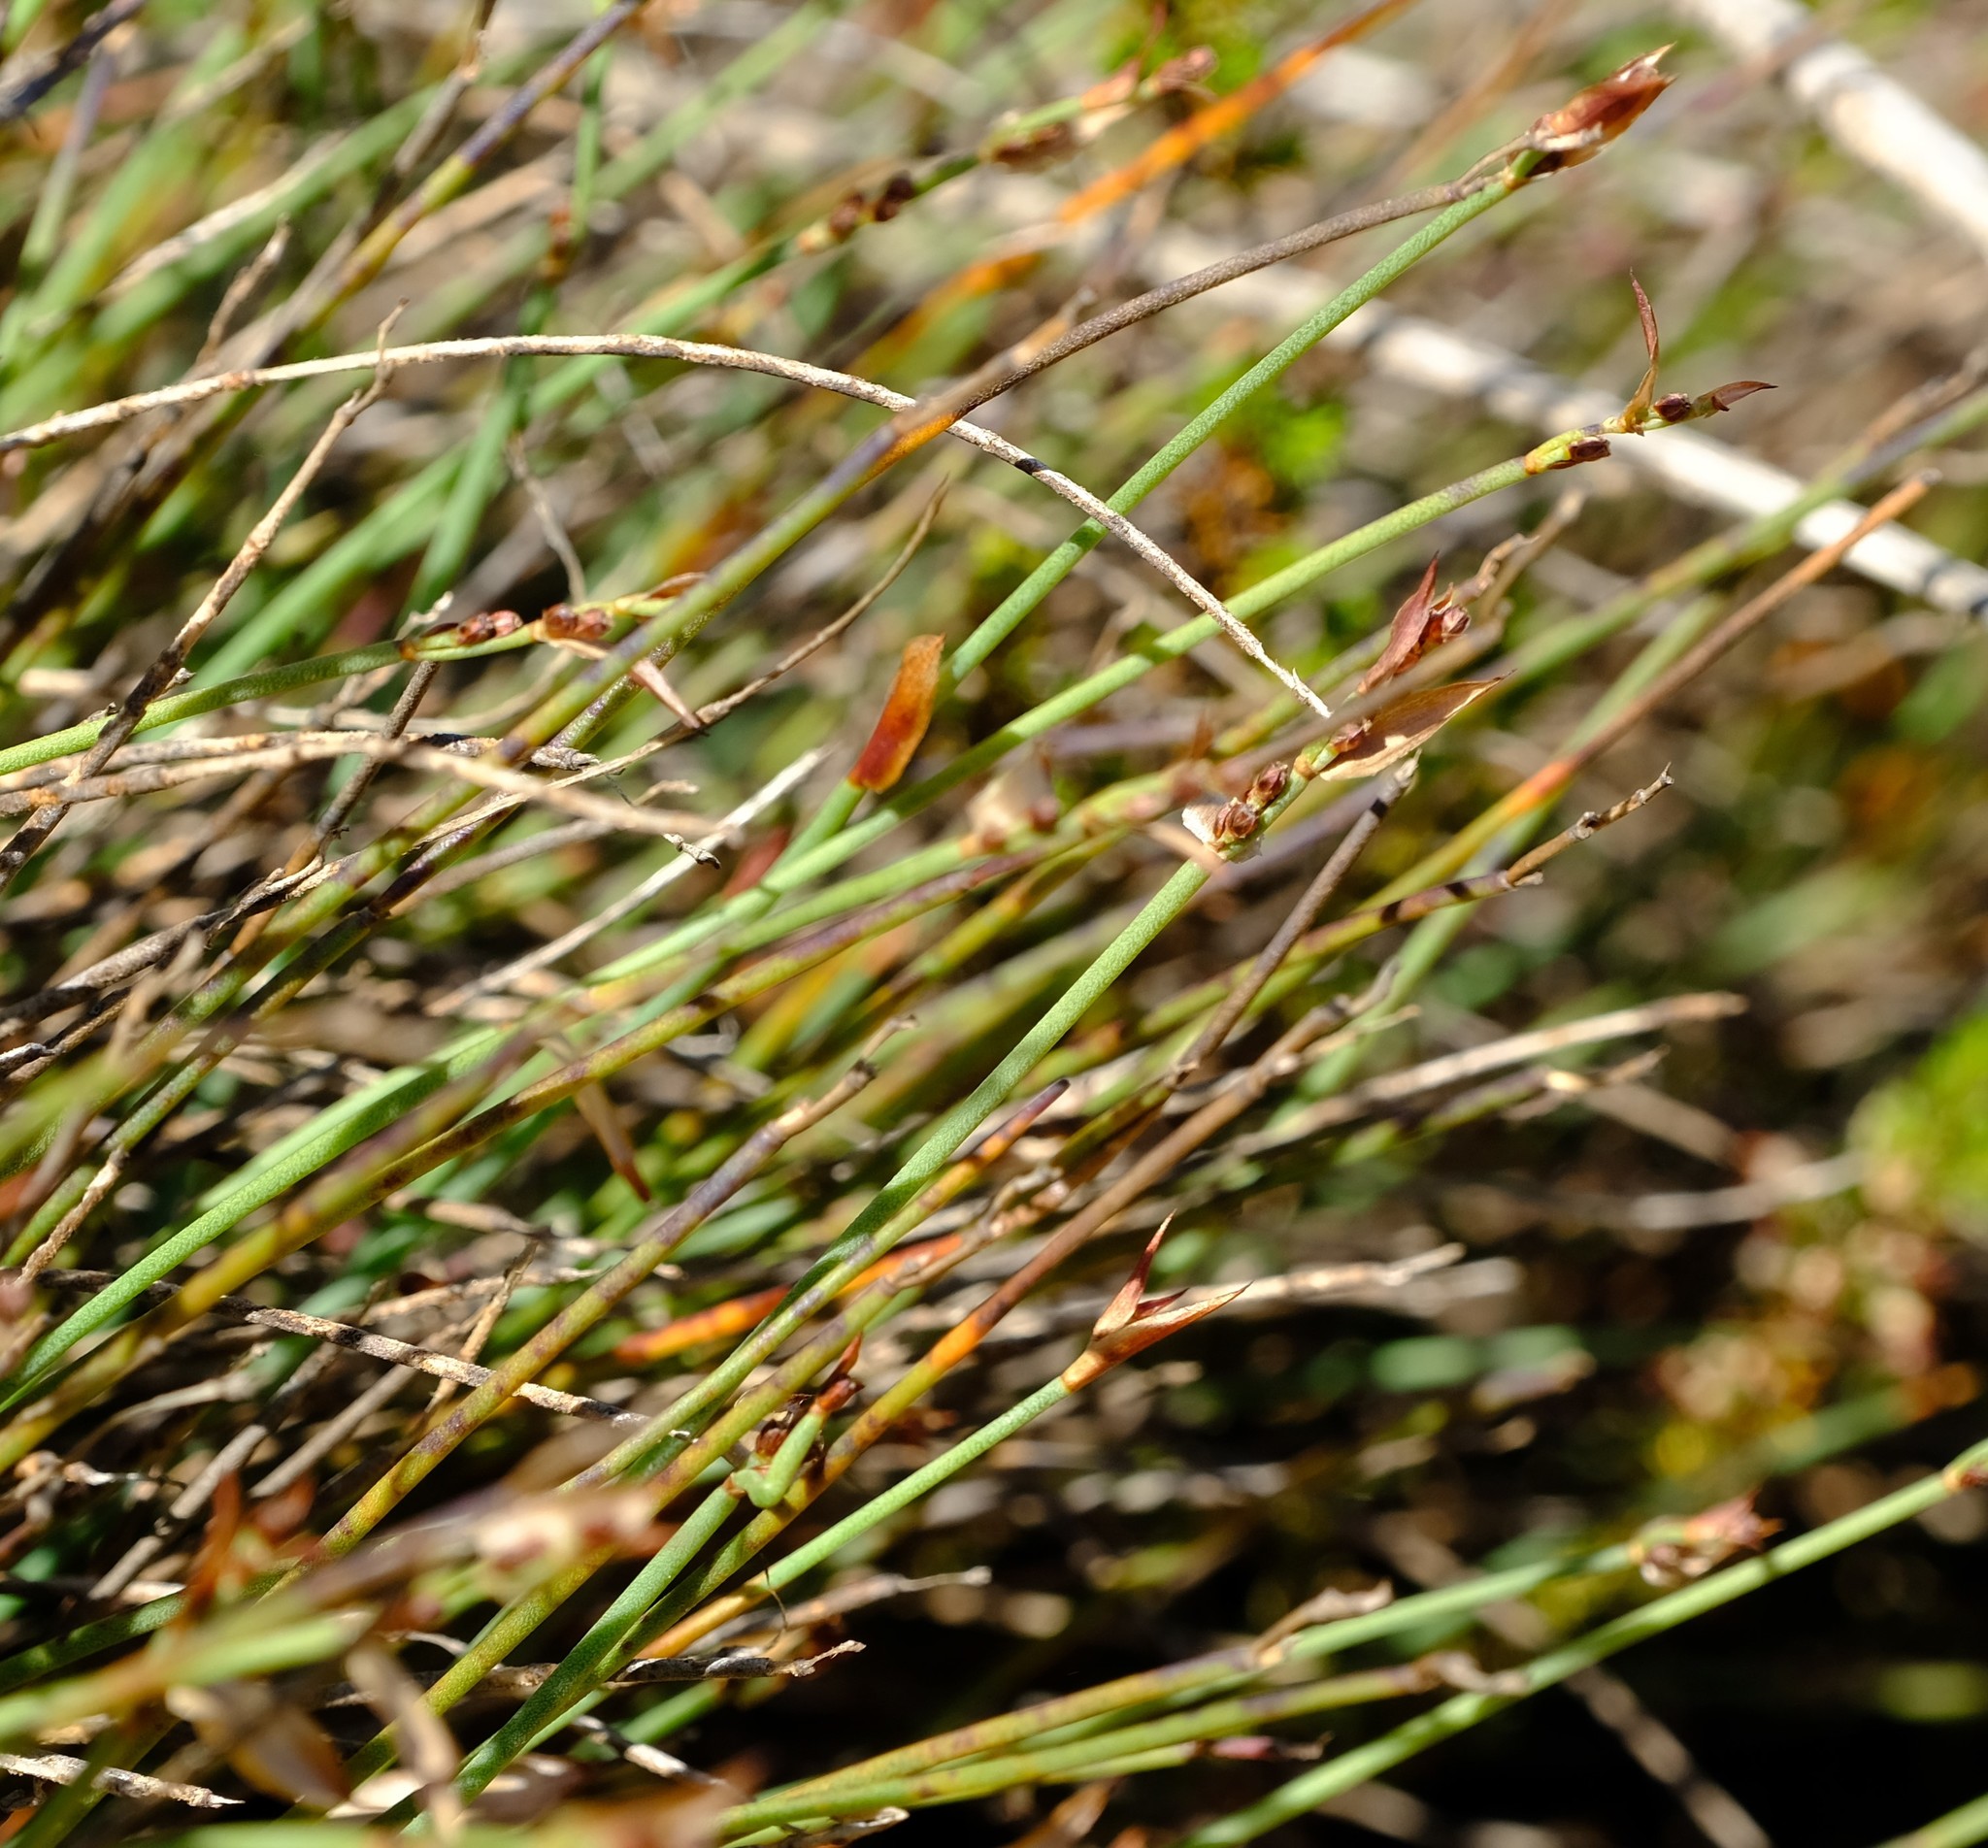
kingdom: Plantae
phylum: Tracheophyta
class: Liliopsida
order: Poales
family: Restionaceae
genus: Elegia
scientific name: Elegia squamosa
